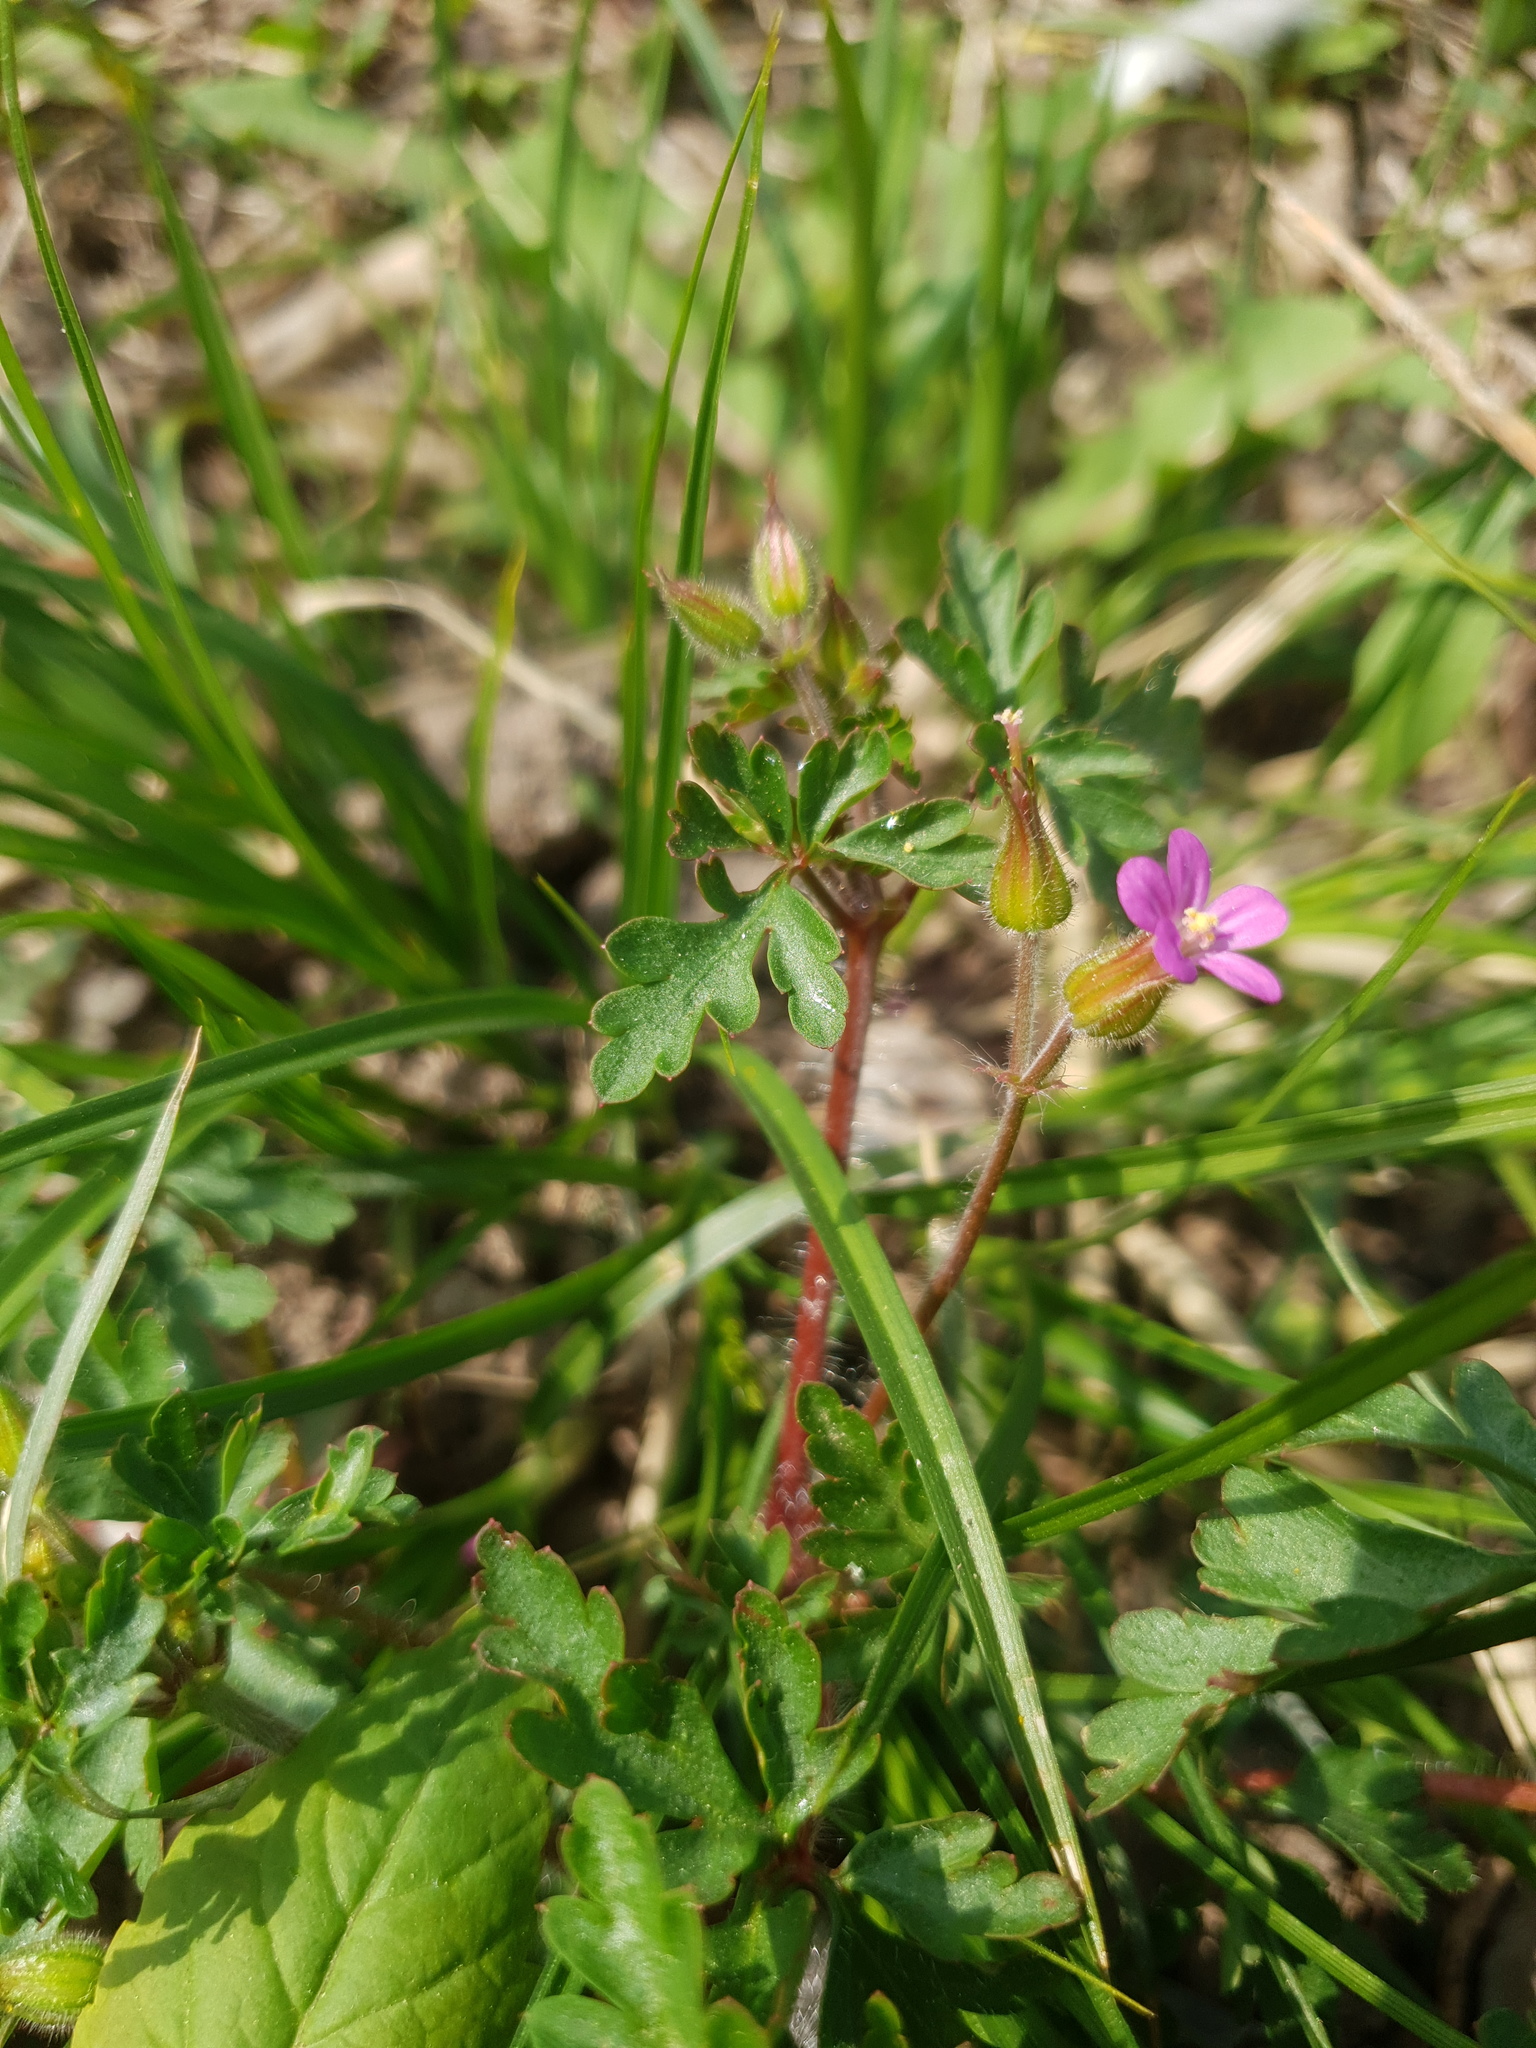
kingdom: Plantae
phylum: Tracheophyta
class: Magnoliopsida
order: Geraniales
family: Geraniaceae
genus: Geranium
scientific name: Geranium purpureum
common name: Little-robin
